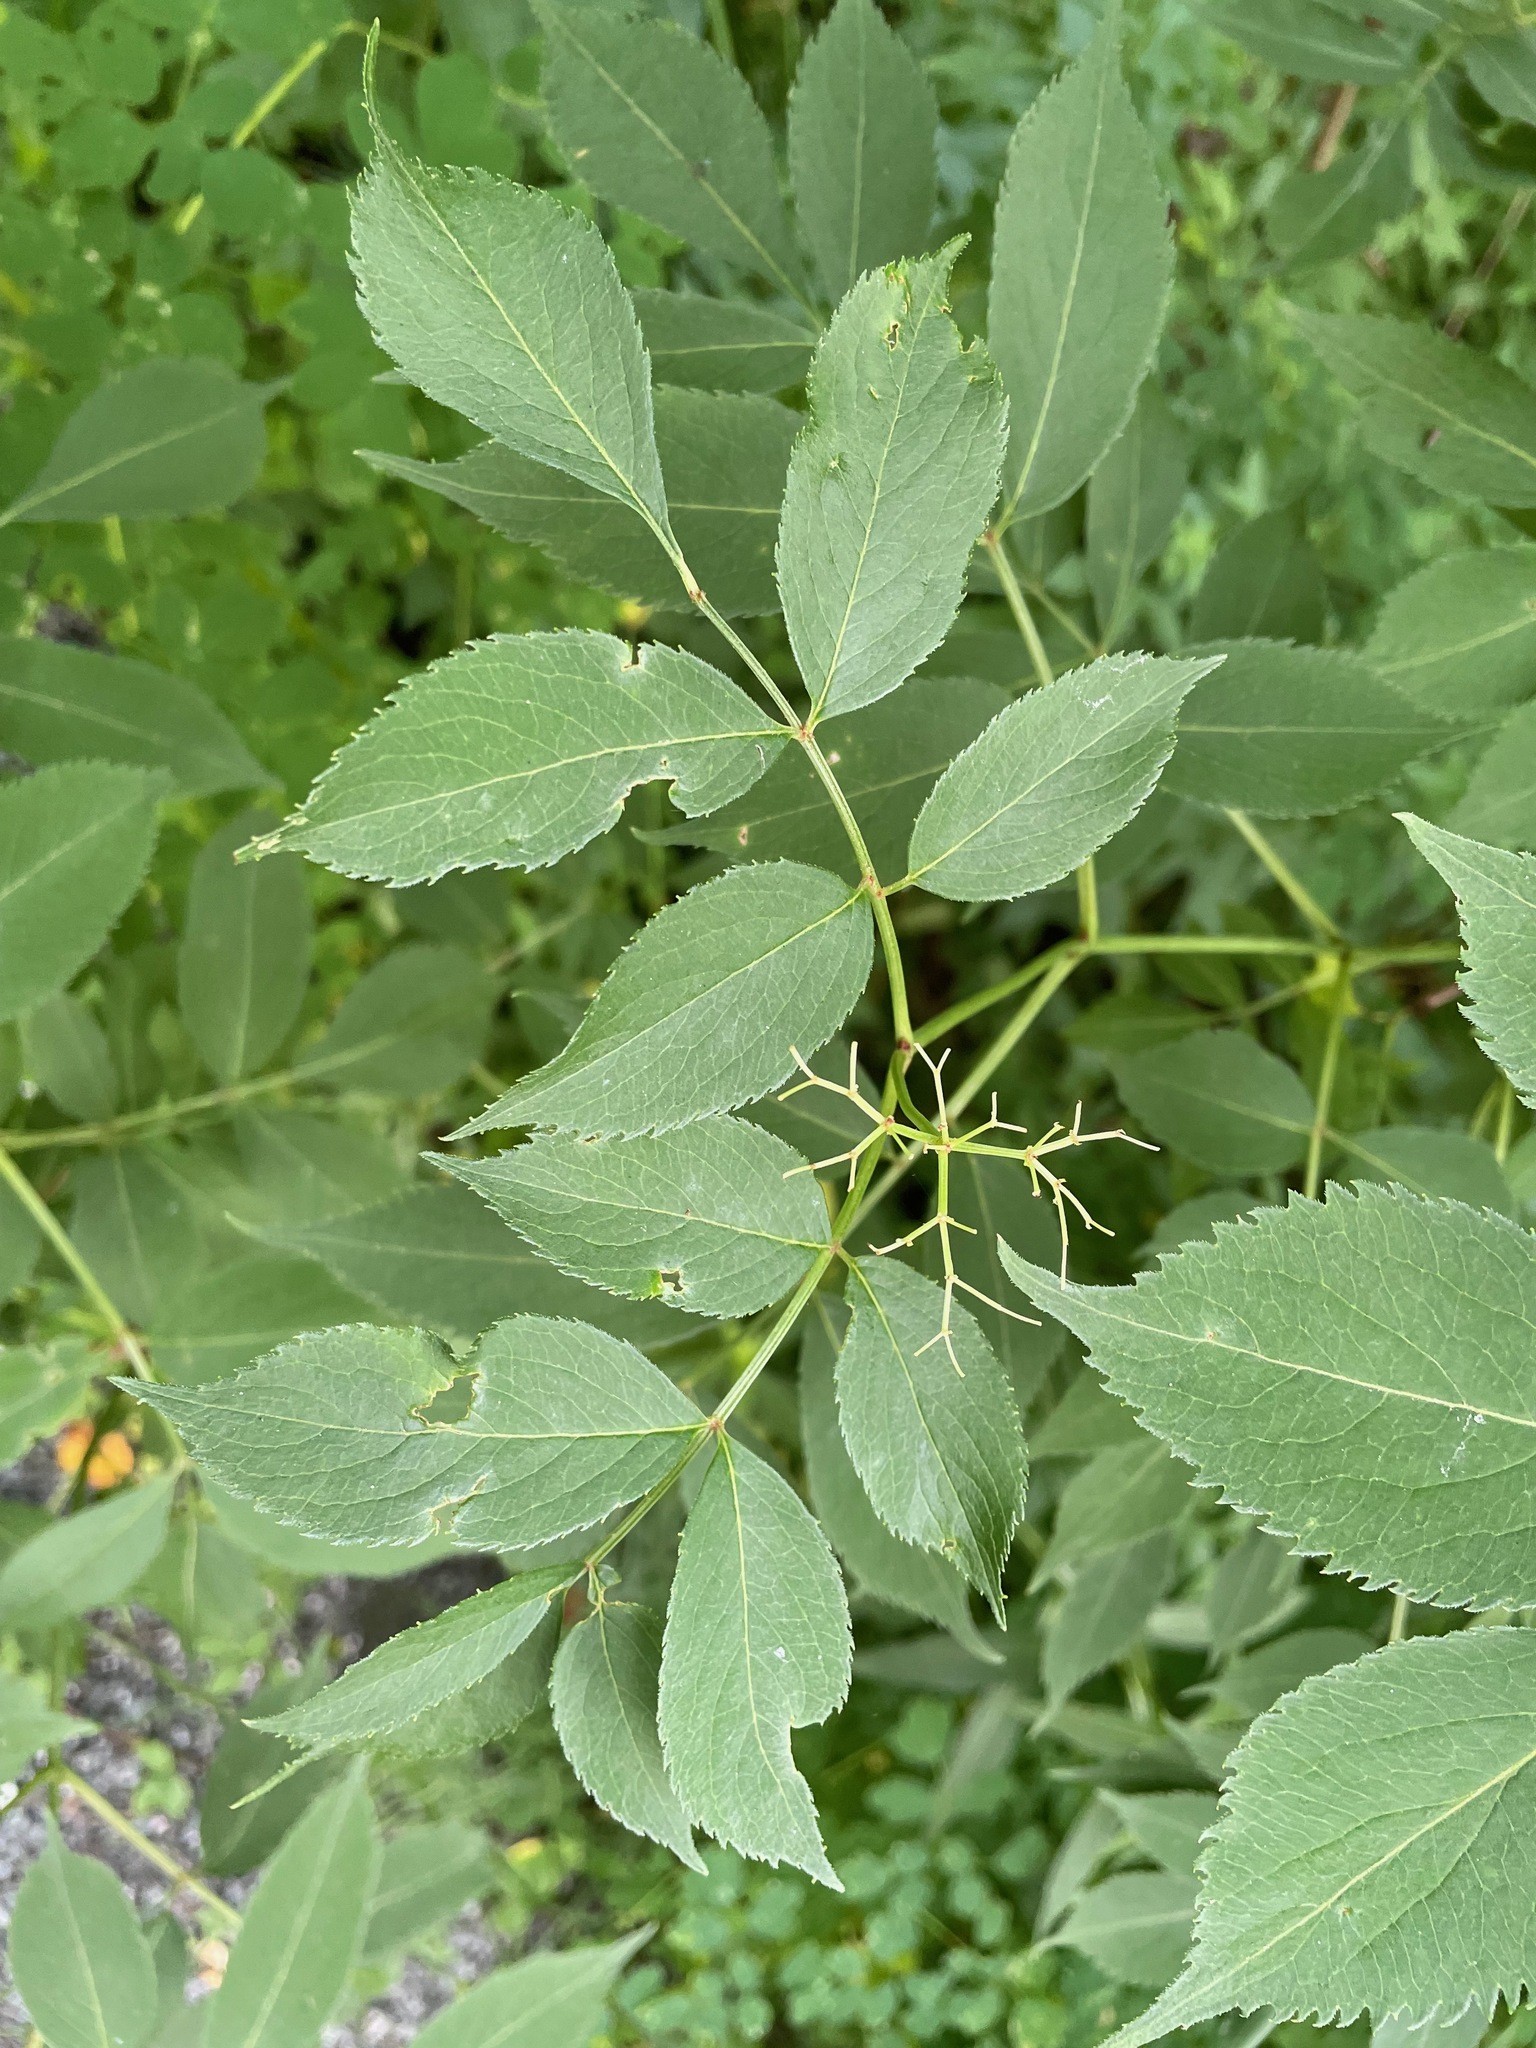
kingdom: Plantae
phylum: Tracheophyta
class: Magnoliopsida
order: Dipsacales
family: Viburnaceae
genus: Sambucus
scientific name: Sambucus canadensis
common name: American elder
